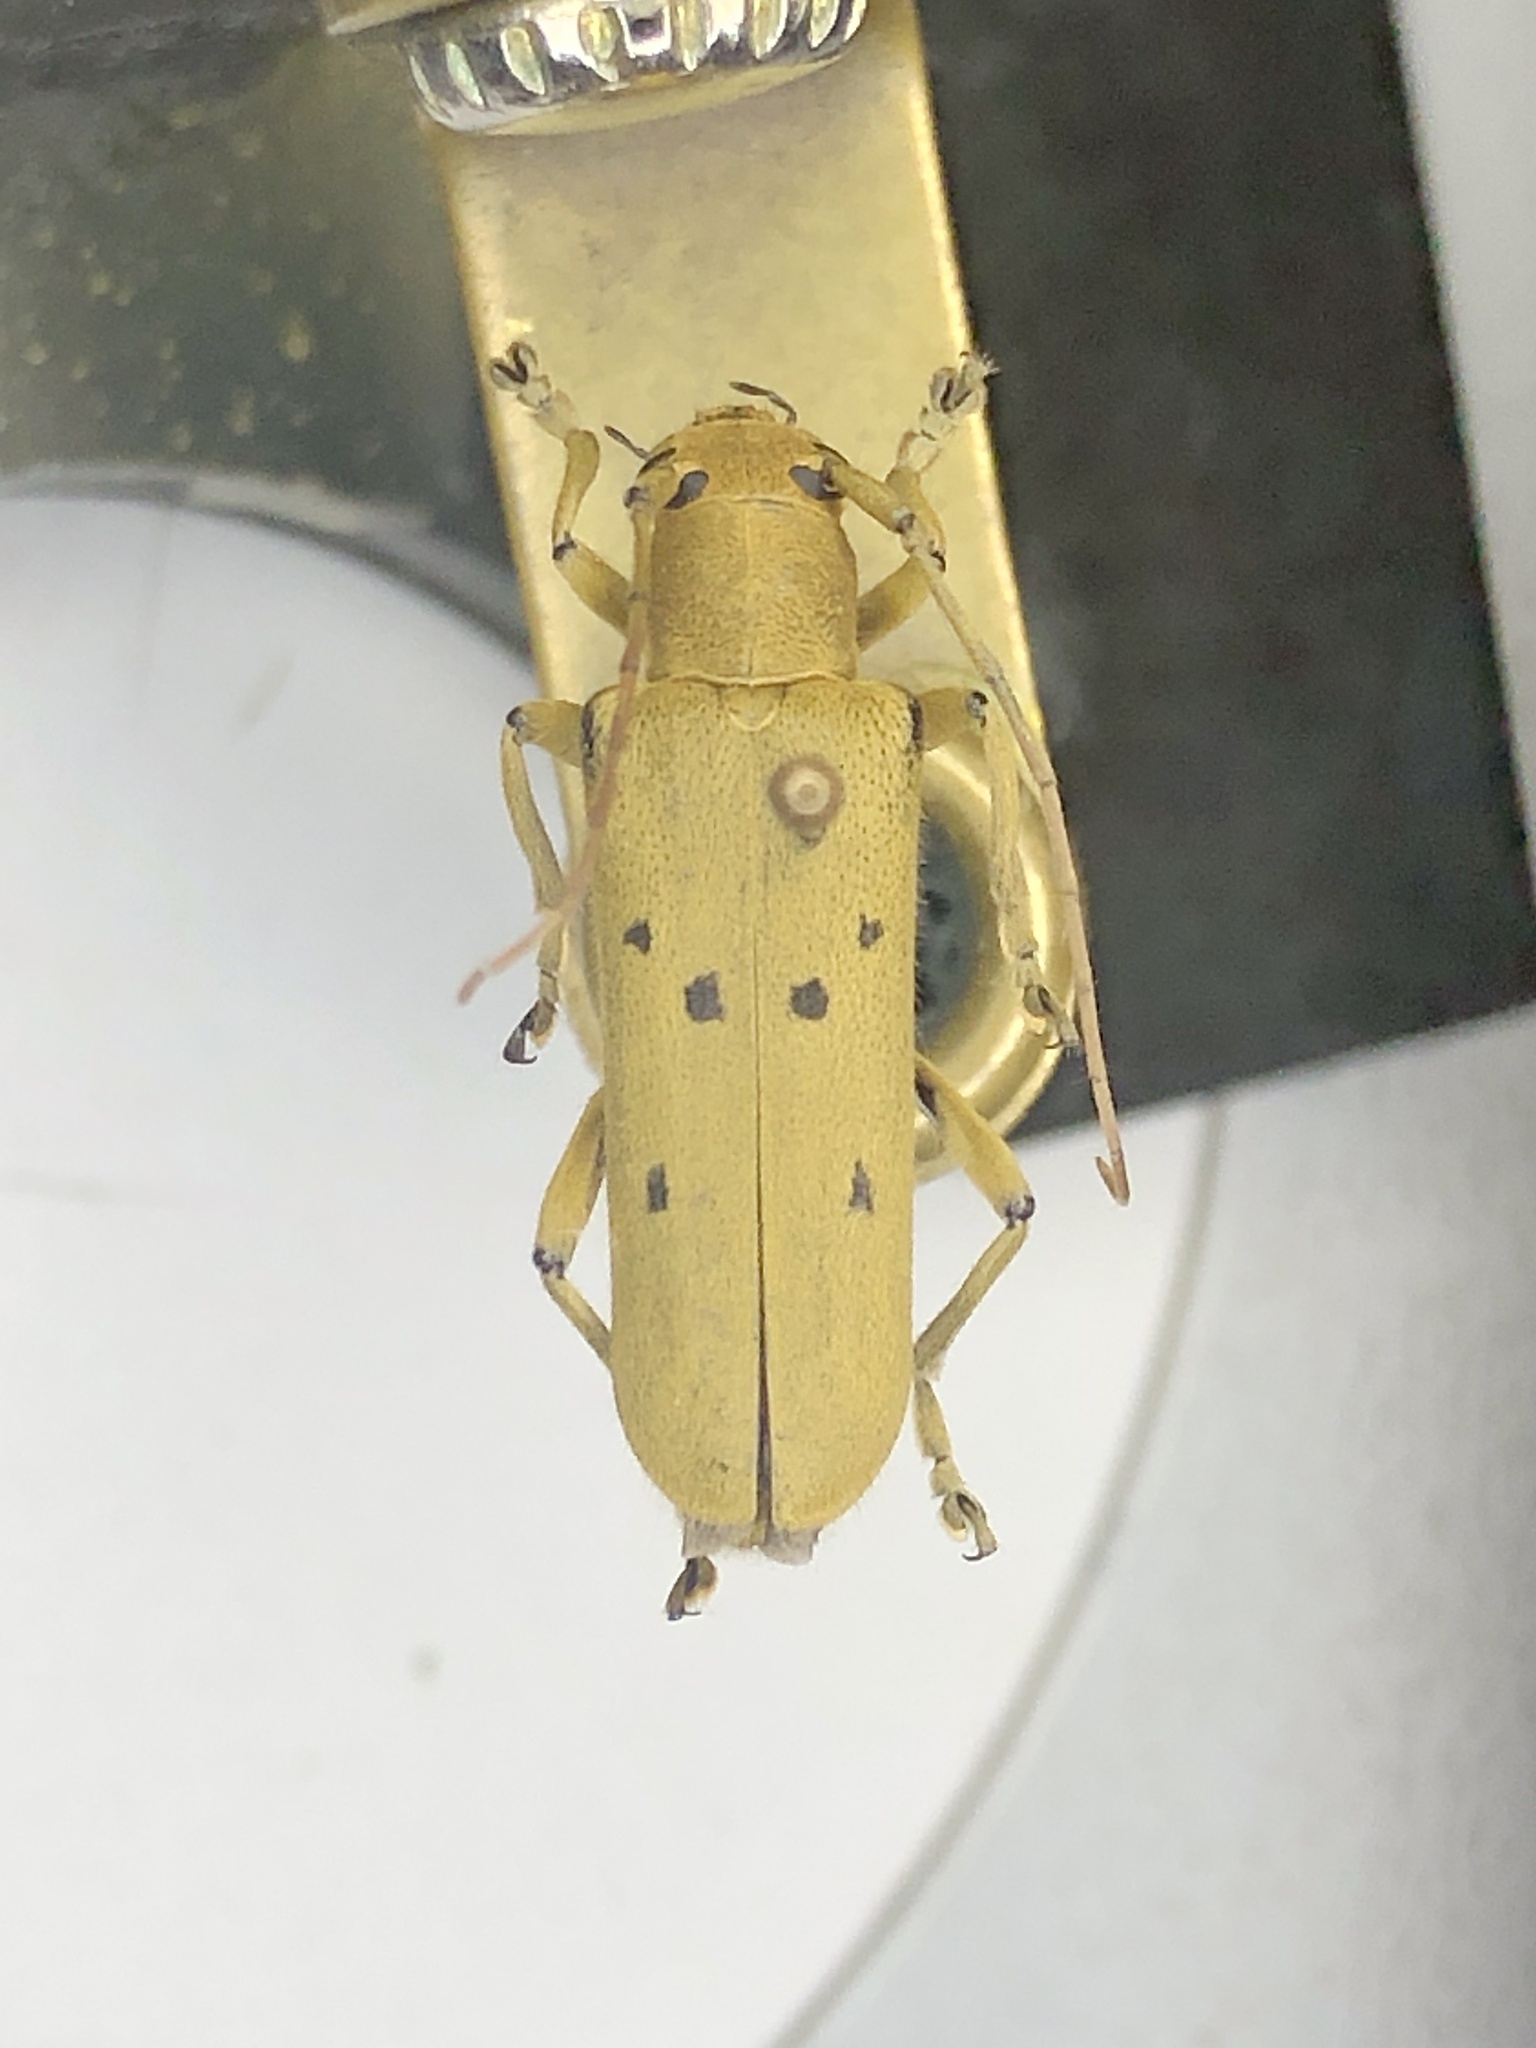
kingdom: Animalia
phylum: Arthropoda
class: Insecta
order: Coleoptera
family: Cerambycidae
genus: Saperda
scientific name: Saperda vestita
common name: Linden borer
